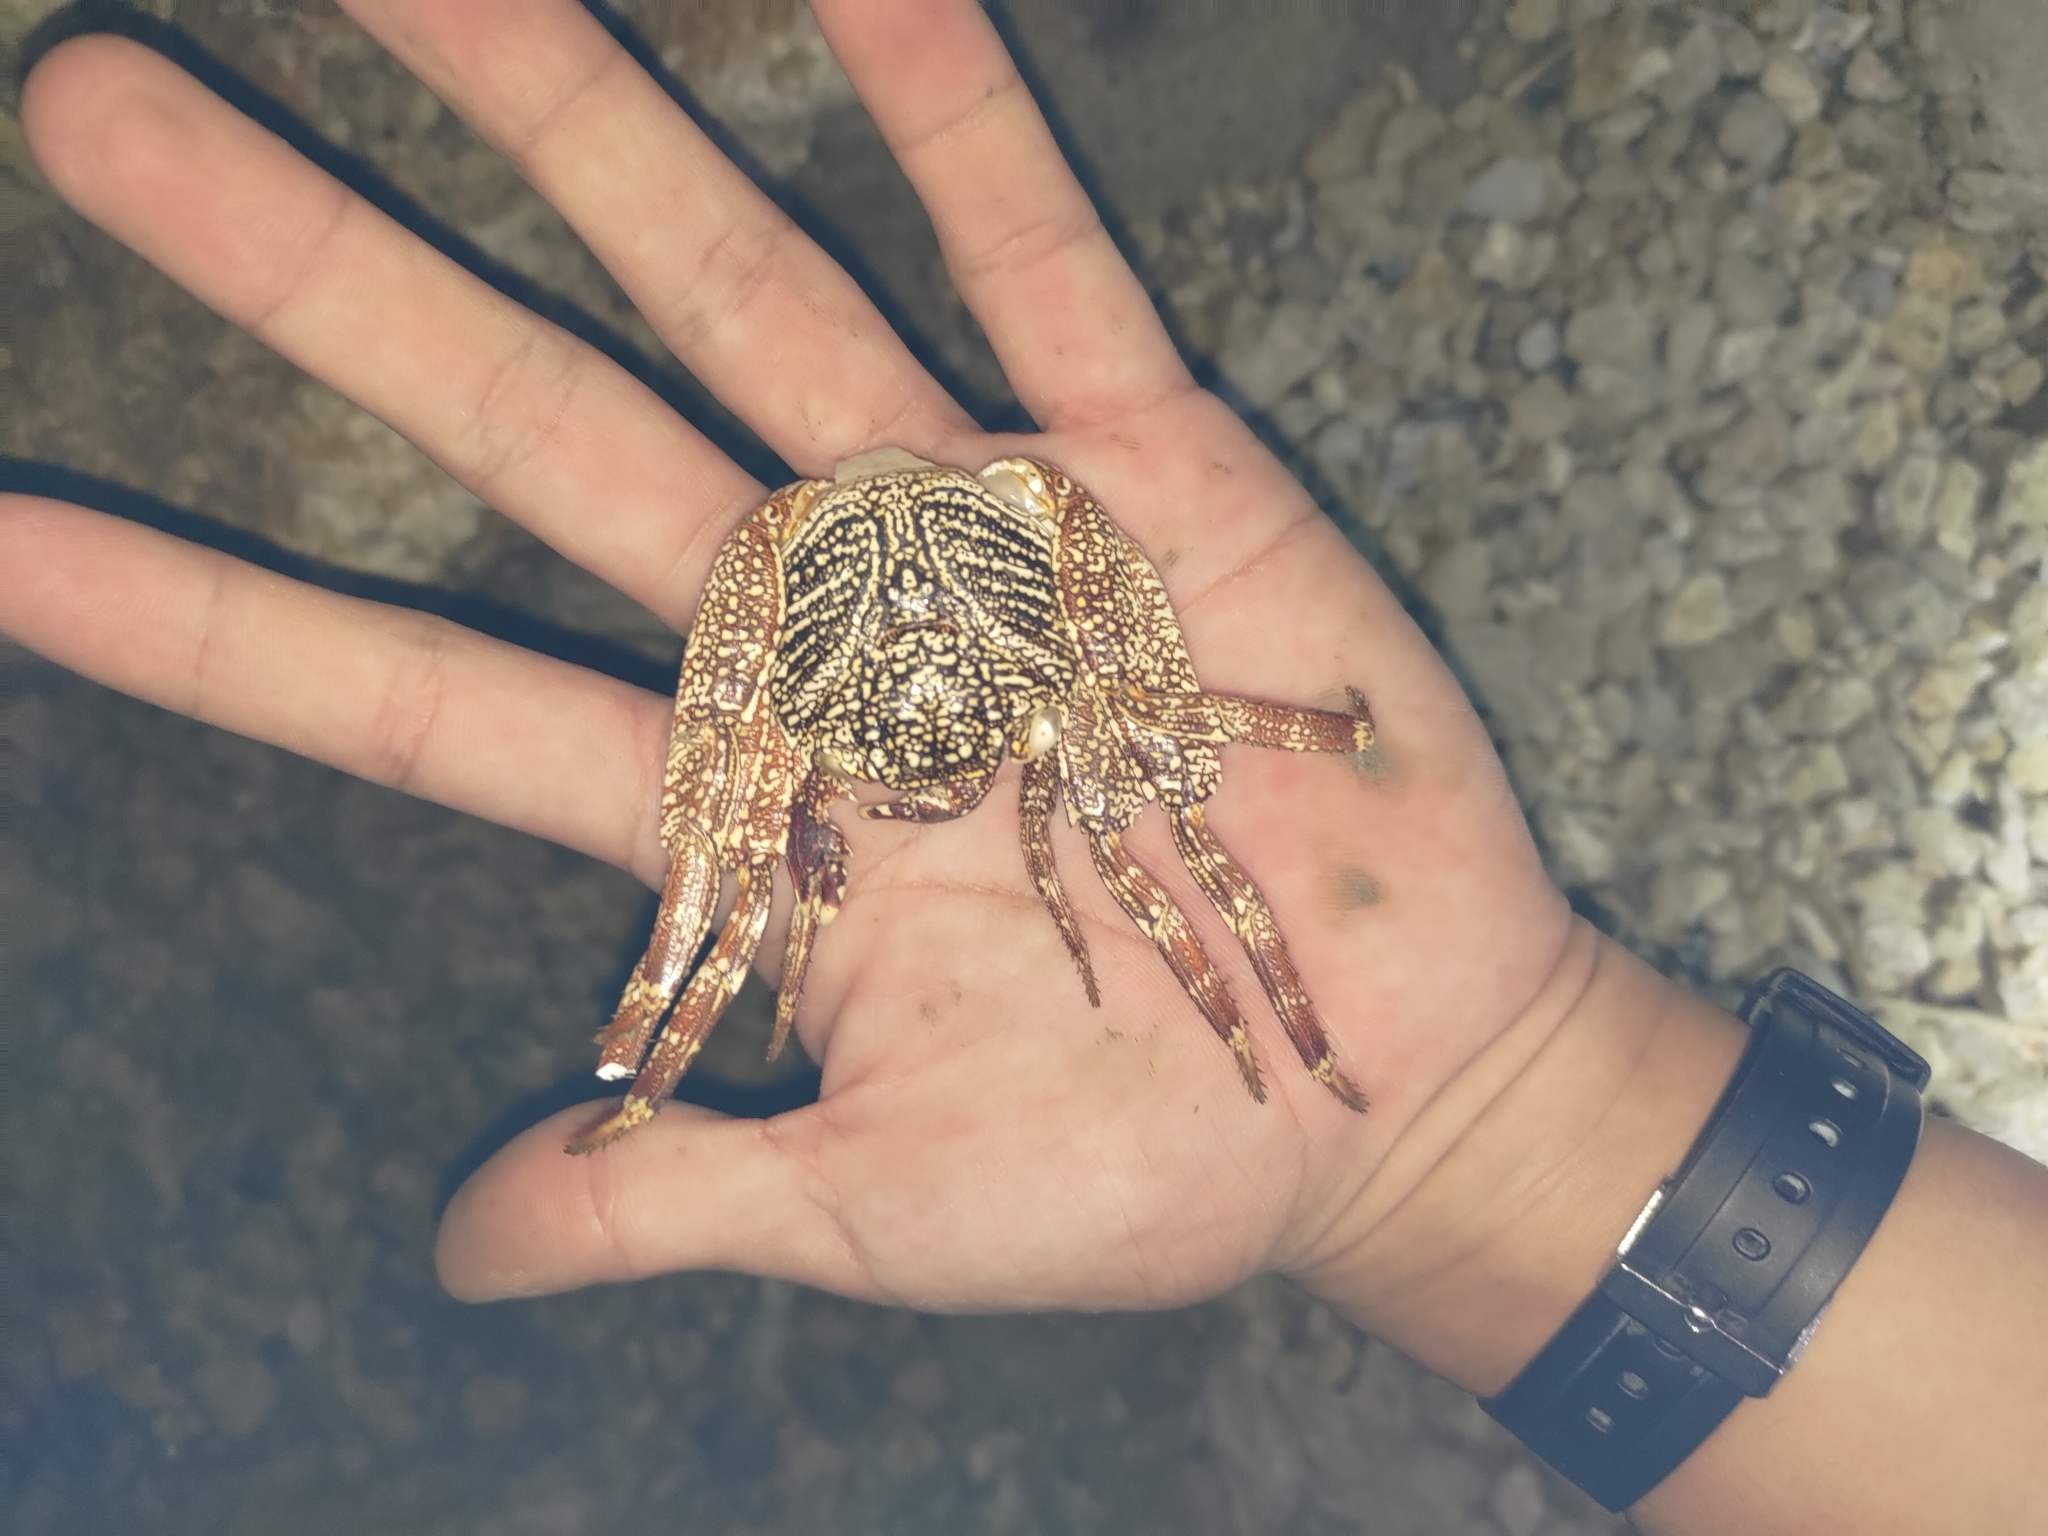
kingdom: Animalia
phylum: Arthropoda
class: Malacostraca
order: Decapoda
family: Grapsidae
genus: Grapsus
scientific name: Grapsus tenuicrustatus
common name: Natal lightfoot crab
